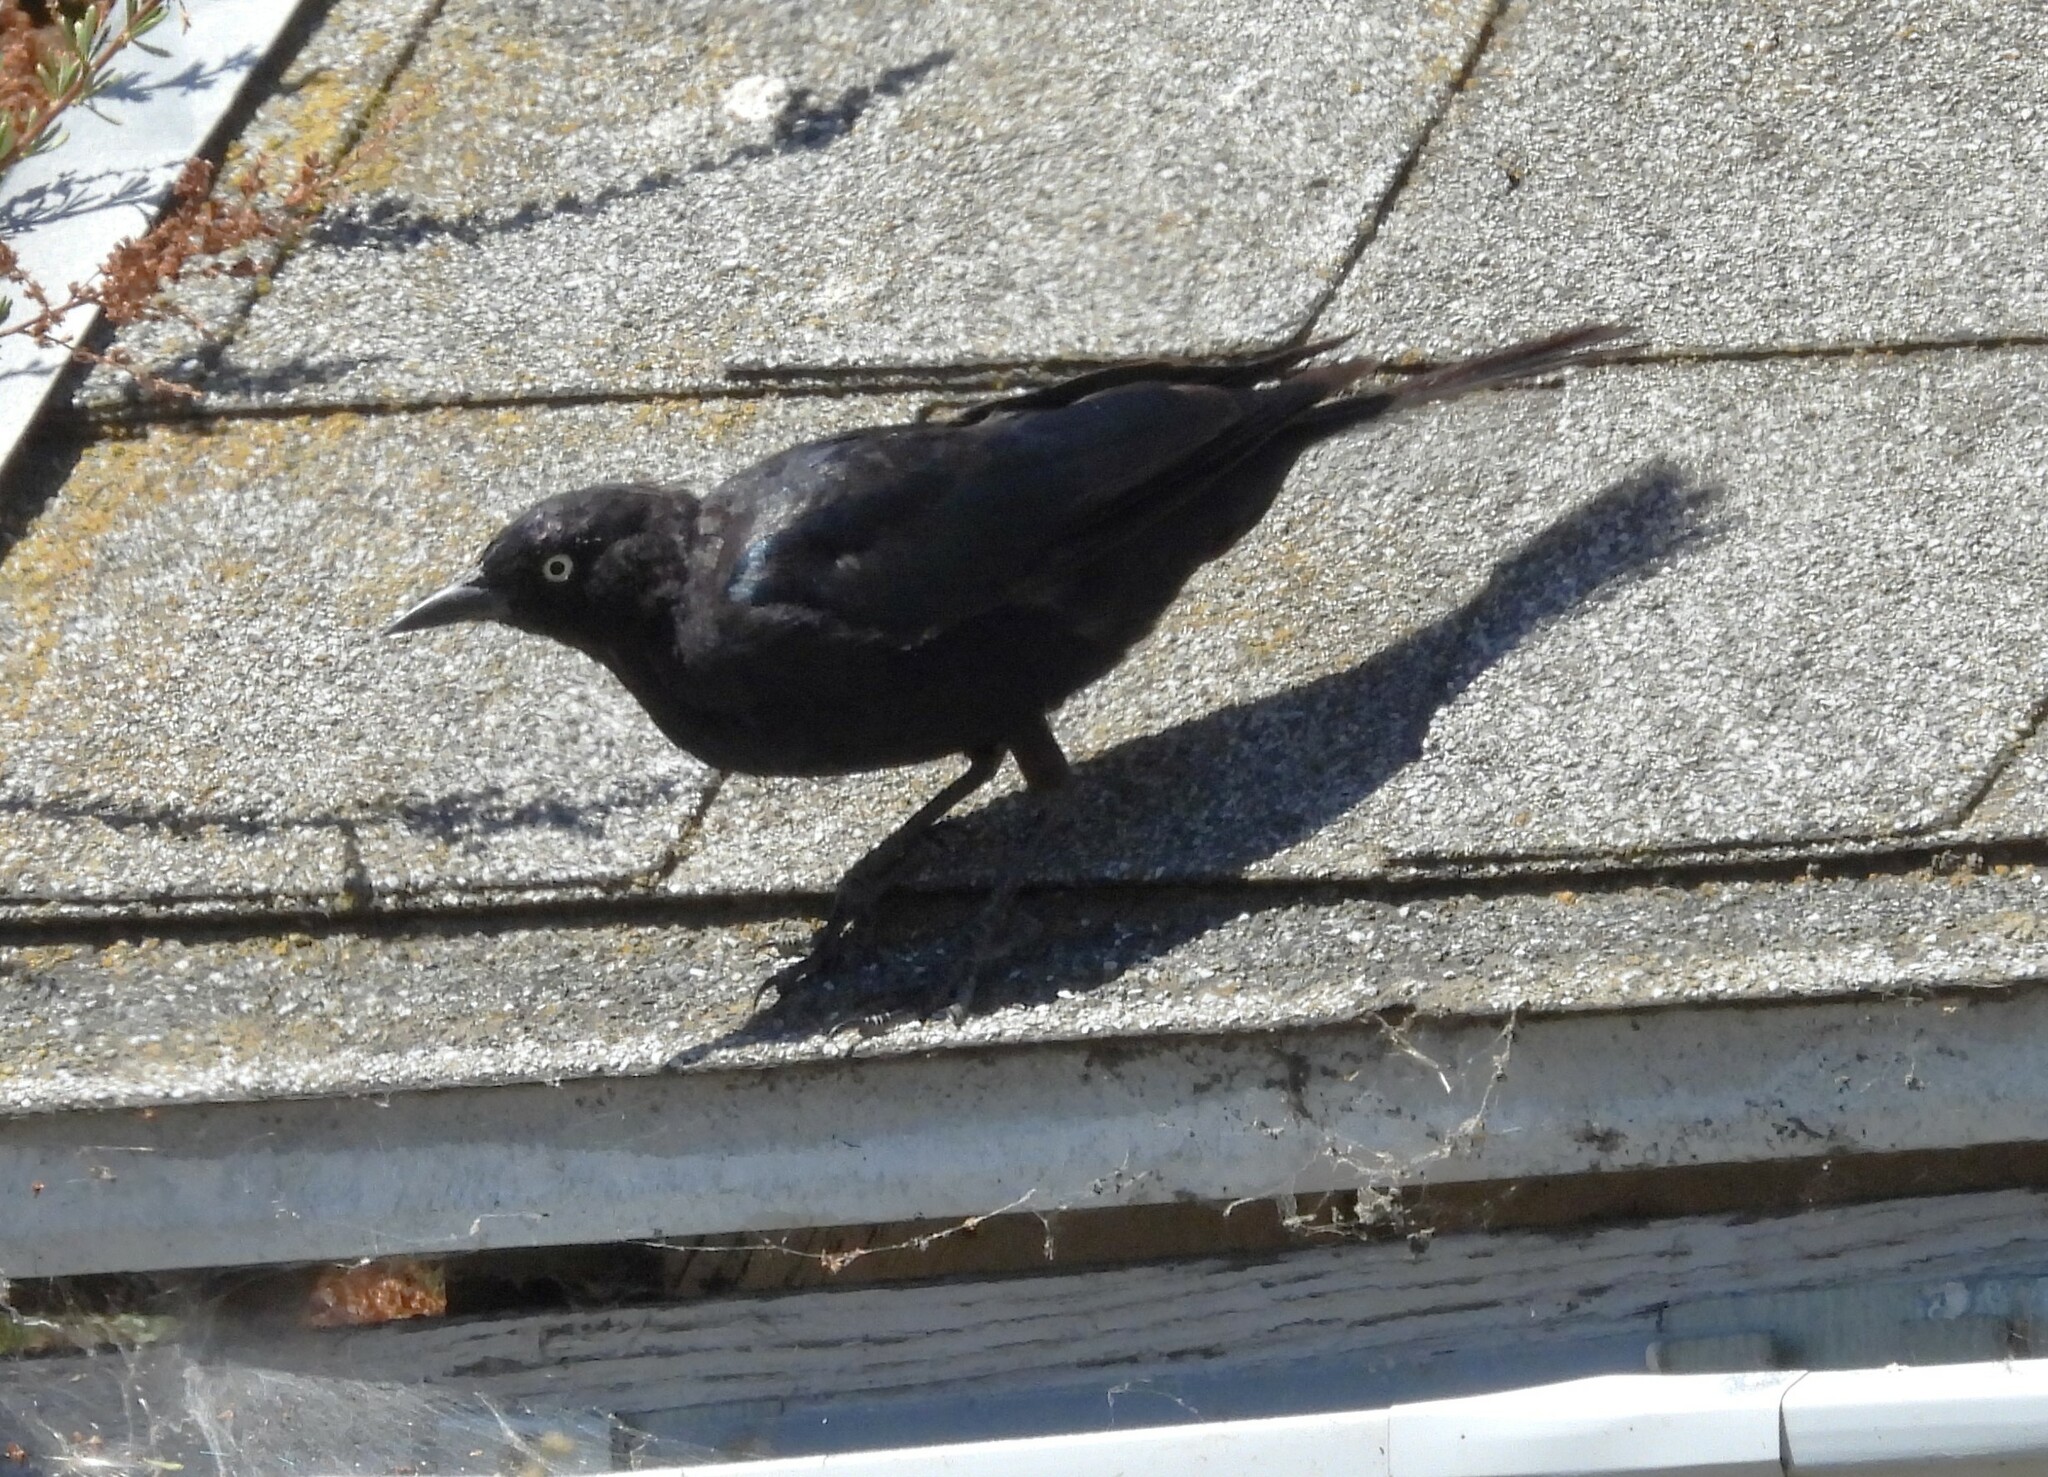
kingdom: Animalia
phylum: Chordata
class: Aves
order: Passeriformes
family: Icteridae
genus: Euphagus
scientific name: Euphagus cyanocephalus
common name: Brewer's blackbird
